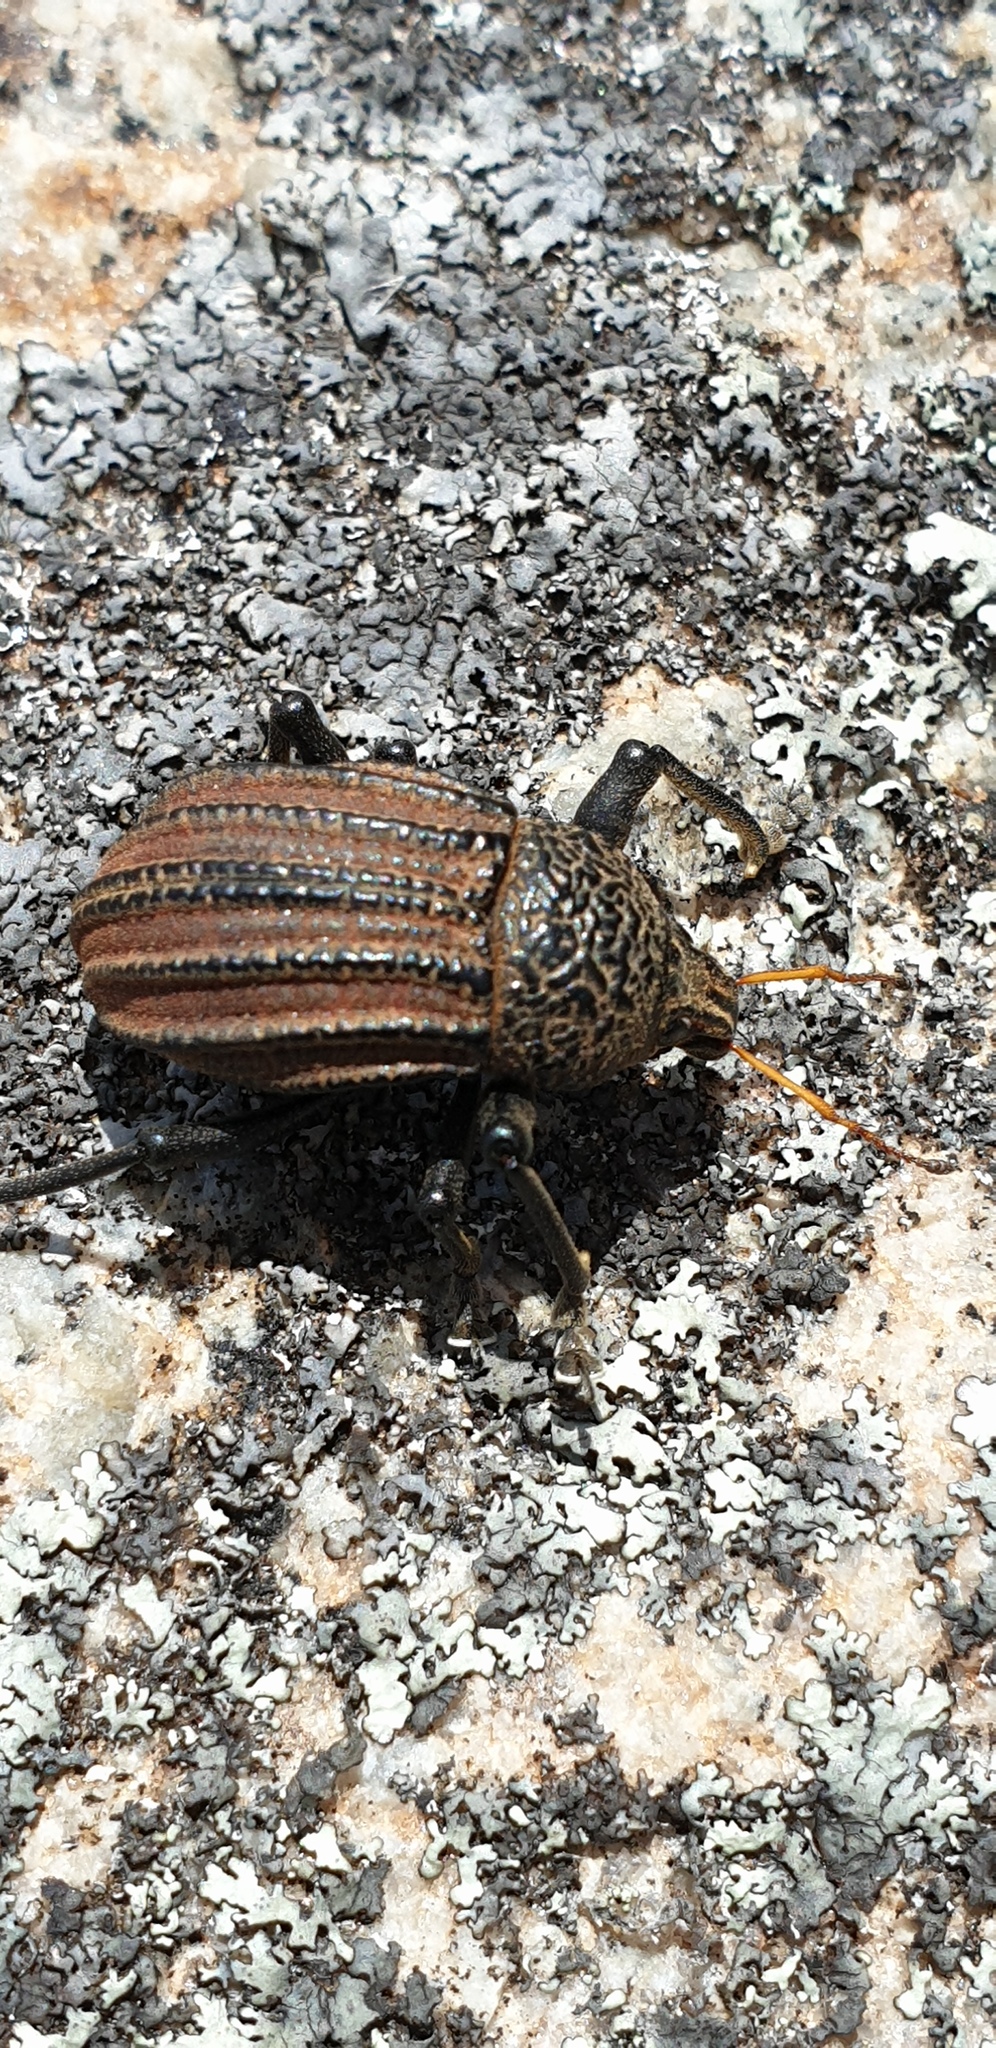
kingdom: Animalia
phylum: Arthropoda
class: Insecta
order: Coleoptera
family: Curculionidae
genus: Psapharus
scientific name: Psapharus ruficornis
